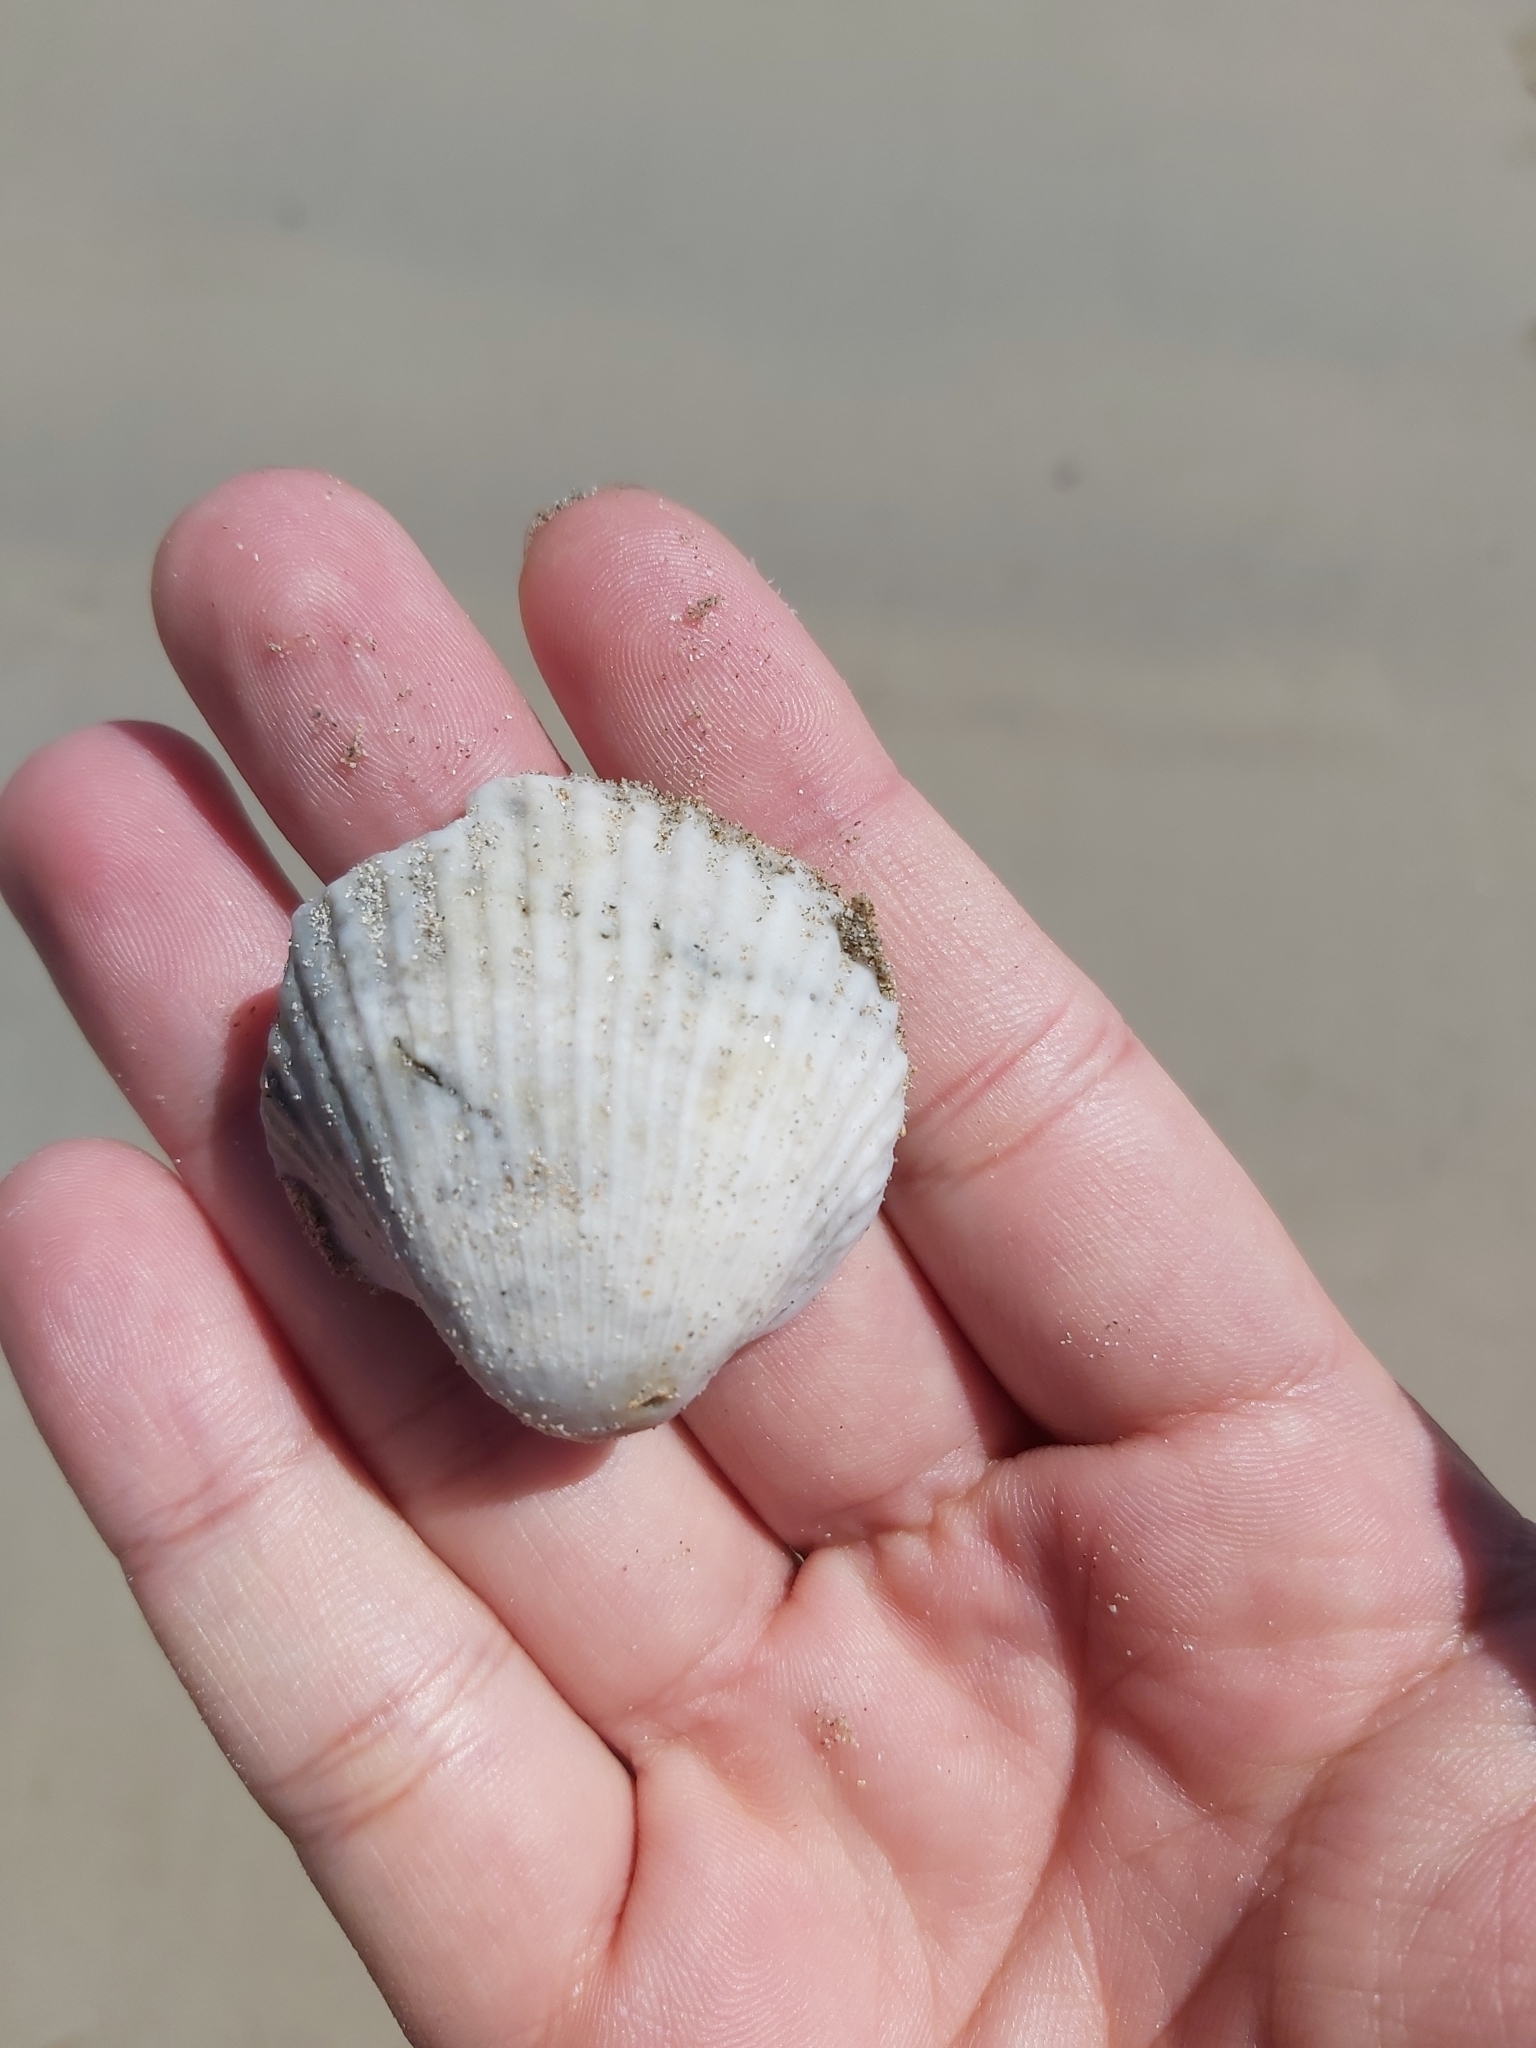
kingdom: Animalia
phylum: Mollusca
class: Bivalvia
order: Arcida
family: Arcidae
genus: Anadara
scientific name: Anadara trapezia
